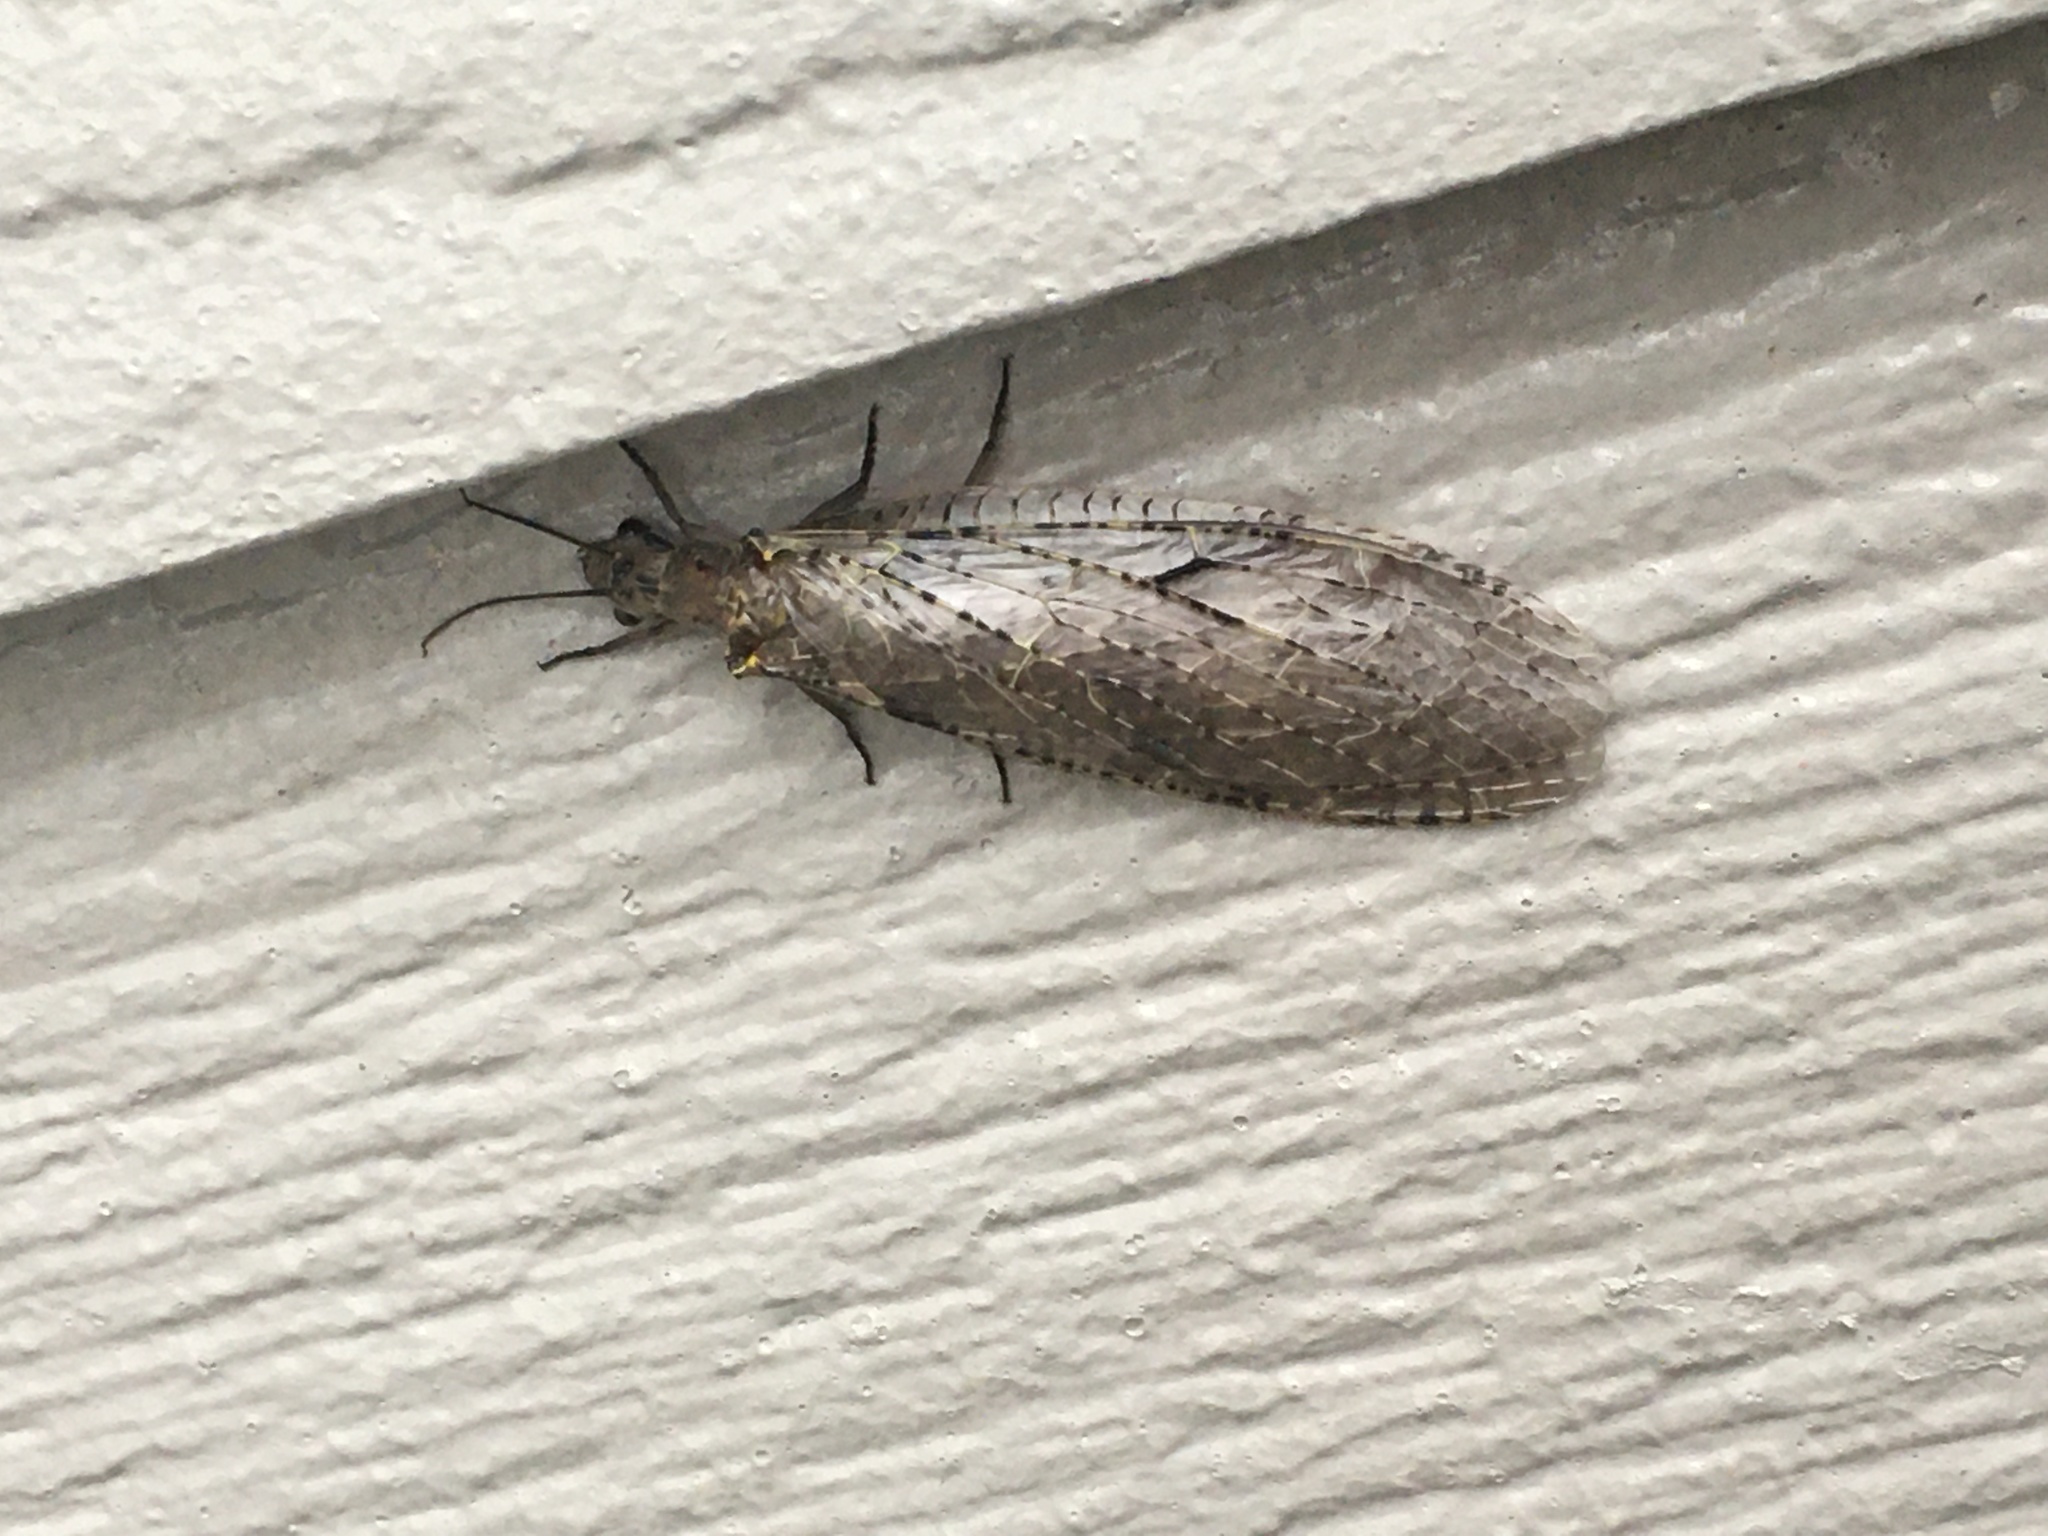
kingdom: Animalia
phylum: Arthropoda
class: Insecta
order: Megaloptera
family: Corydalidae
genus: Chauliodes
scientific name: Chauliodes rastricornis
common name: Spring fishfly
